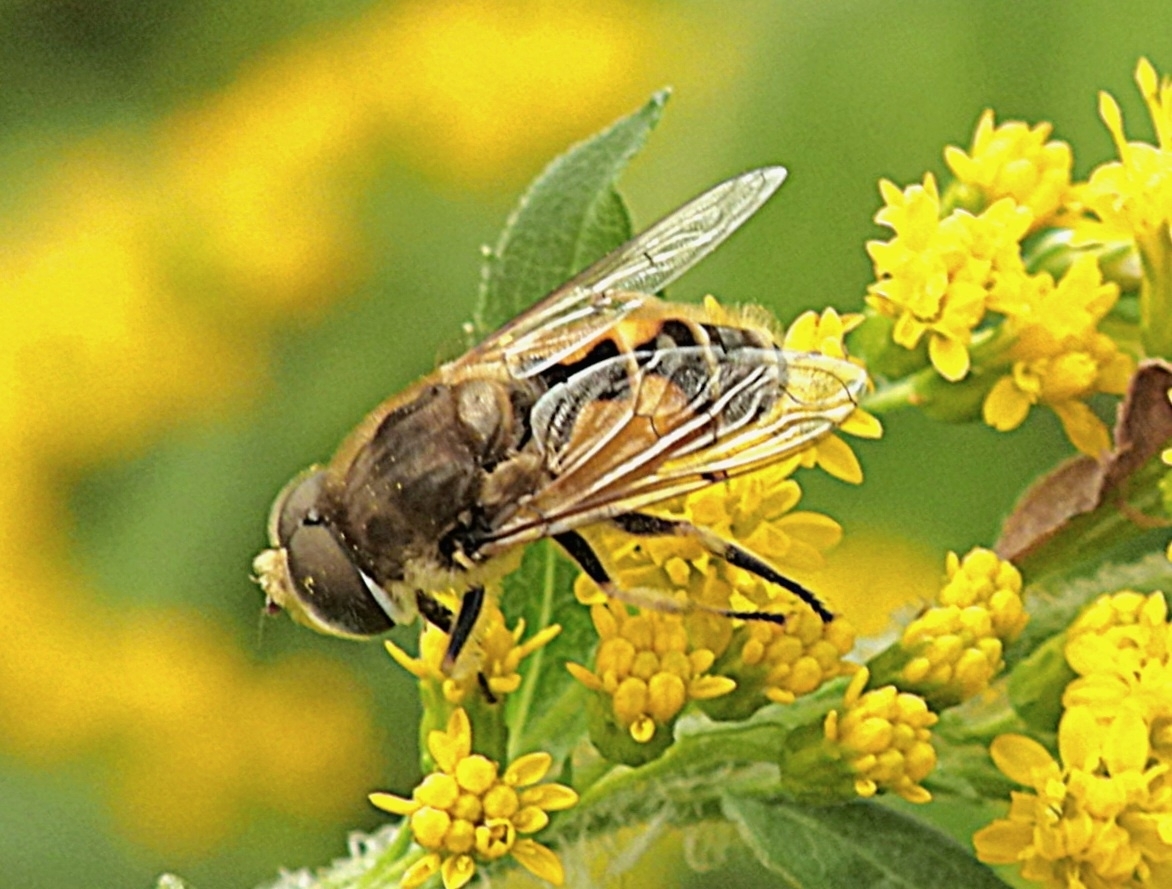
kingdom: Animalia
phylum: Arthropoda
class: Insecta
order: Diptera
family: Syrphidae
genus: Eristalis
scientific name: Eristalis arbustorum
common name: Hover fly
